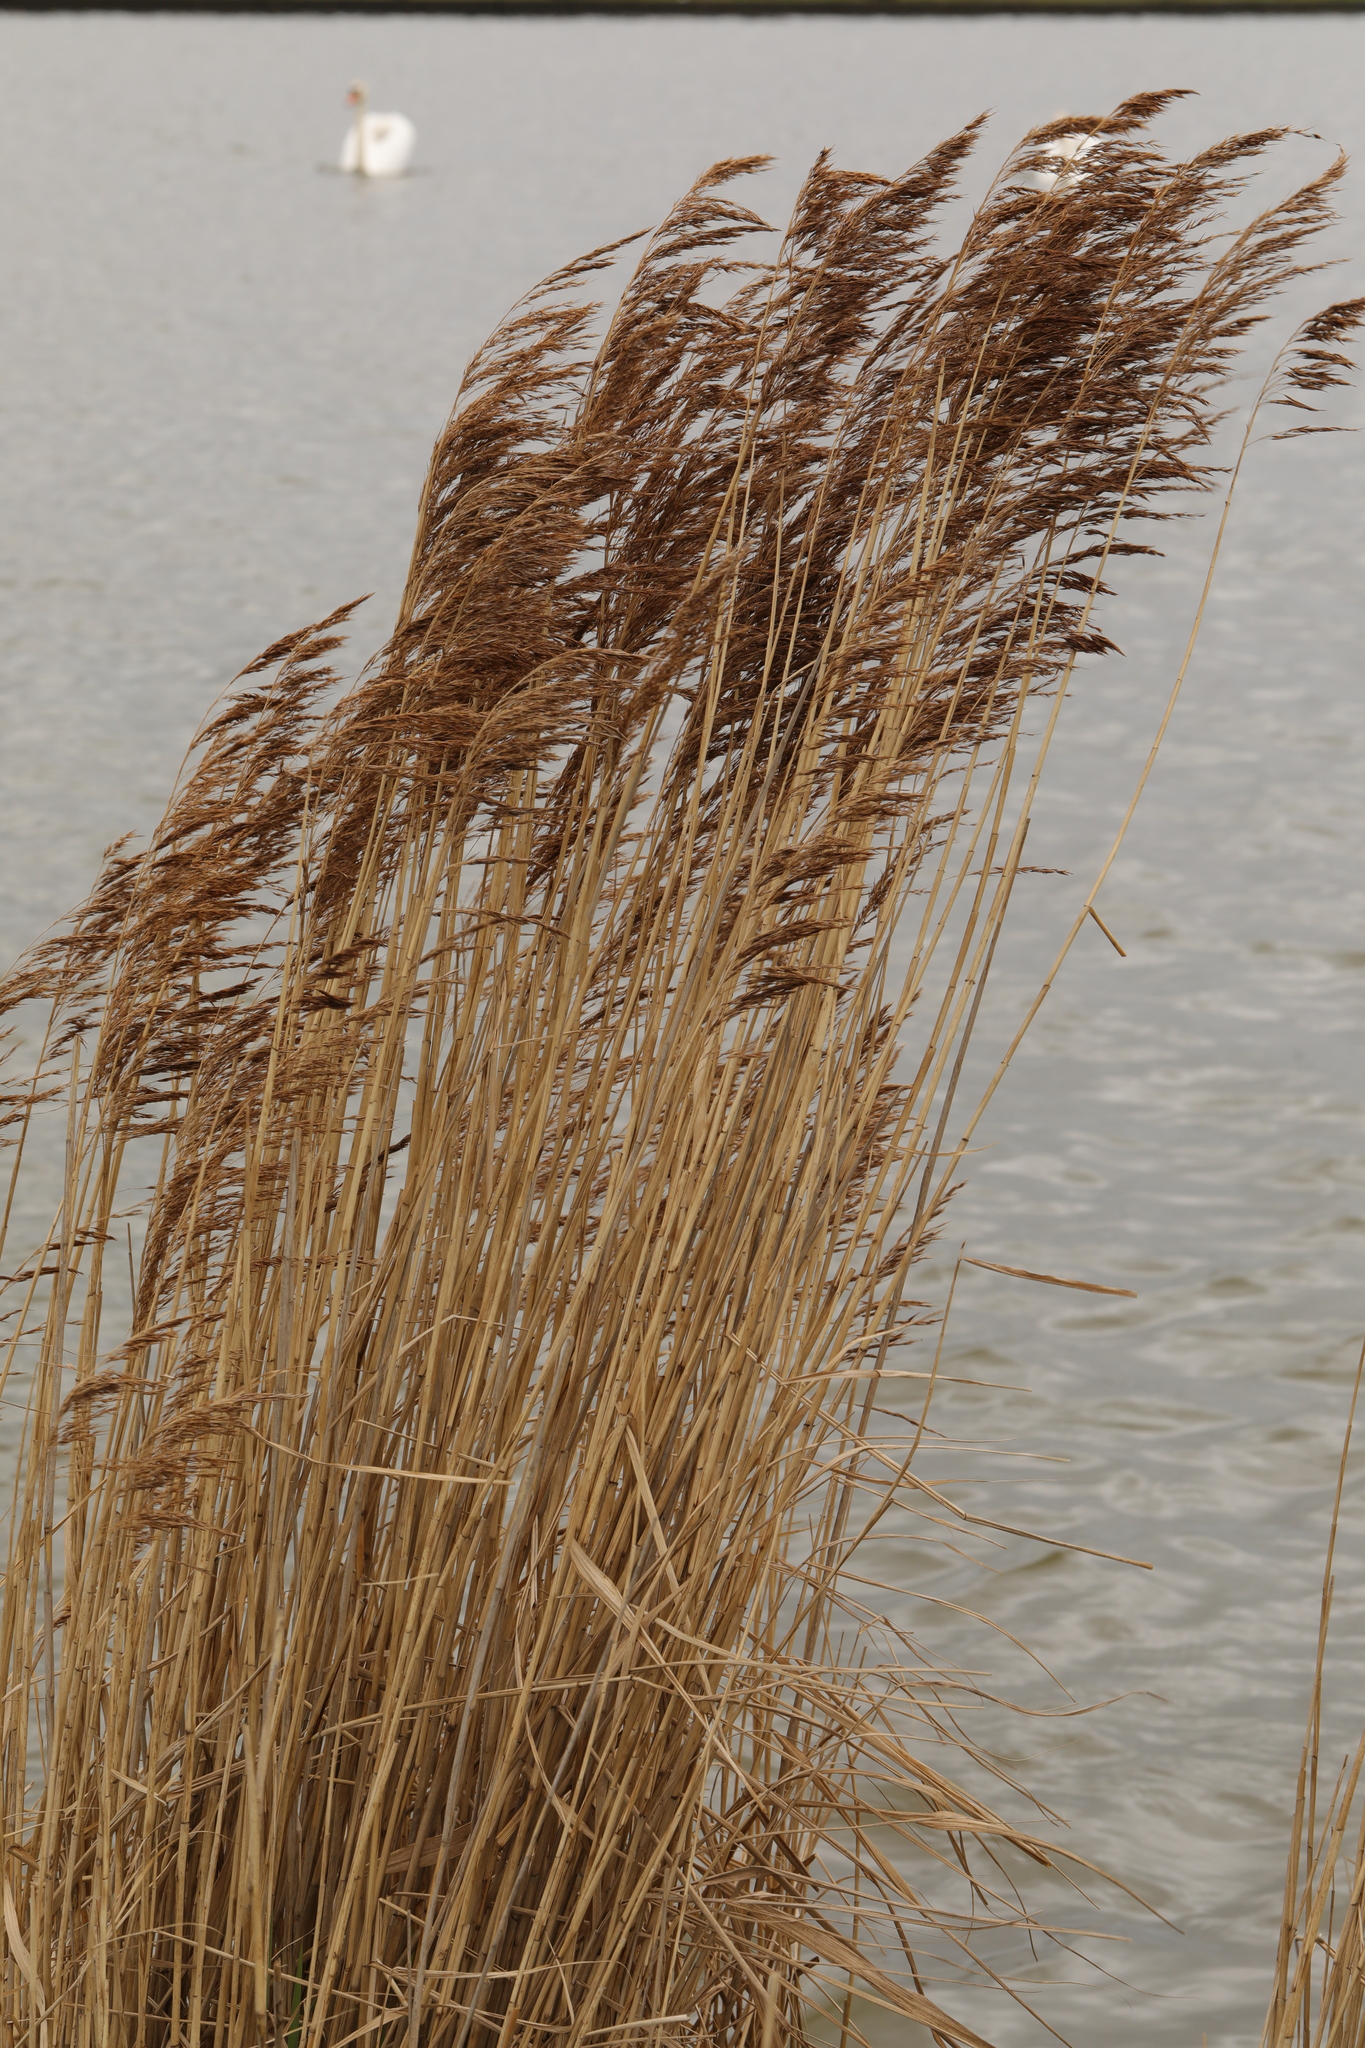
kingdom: Plantae
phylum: Tracheophyta
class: Liliopsida
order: Poales
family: Poaceae
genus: Phragmites
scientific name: Phragmites australis
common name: Common reed
